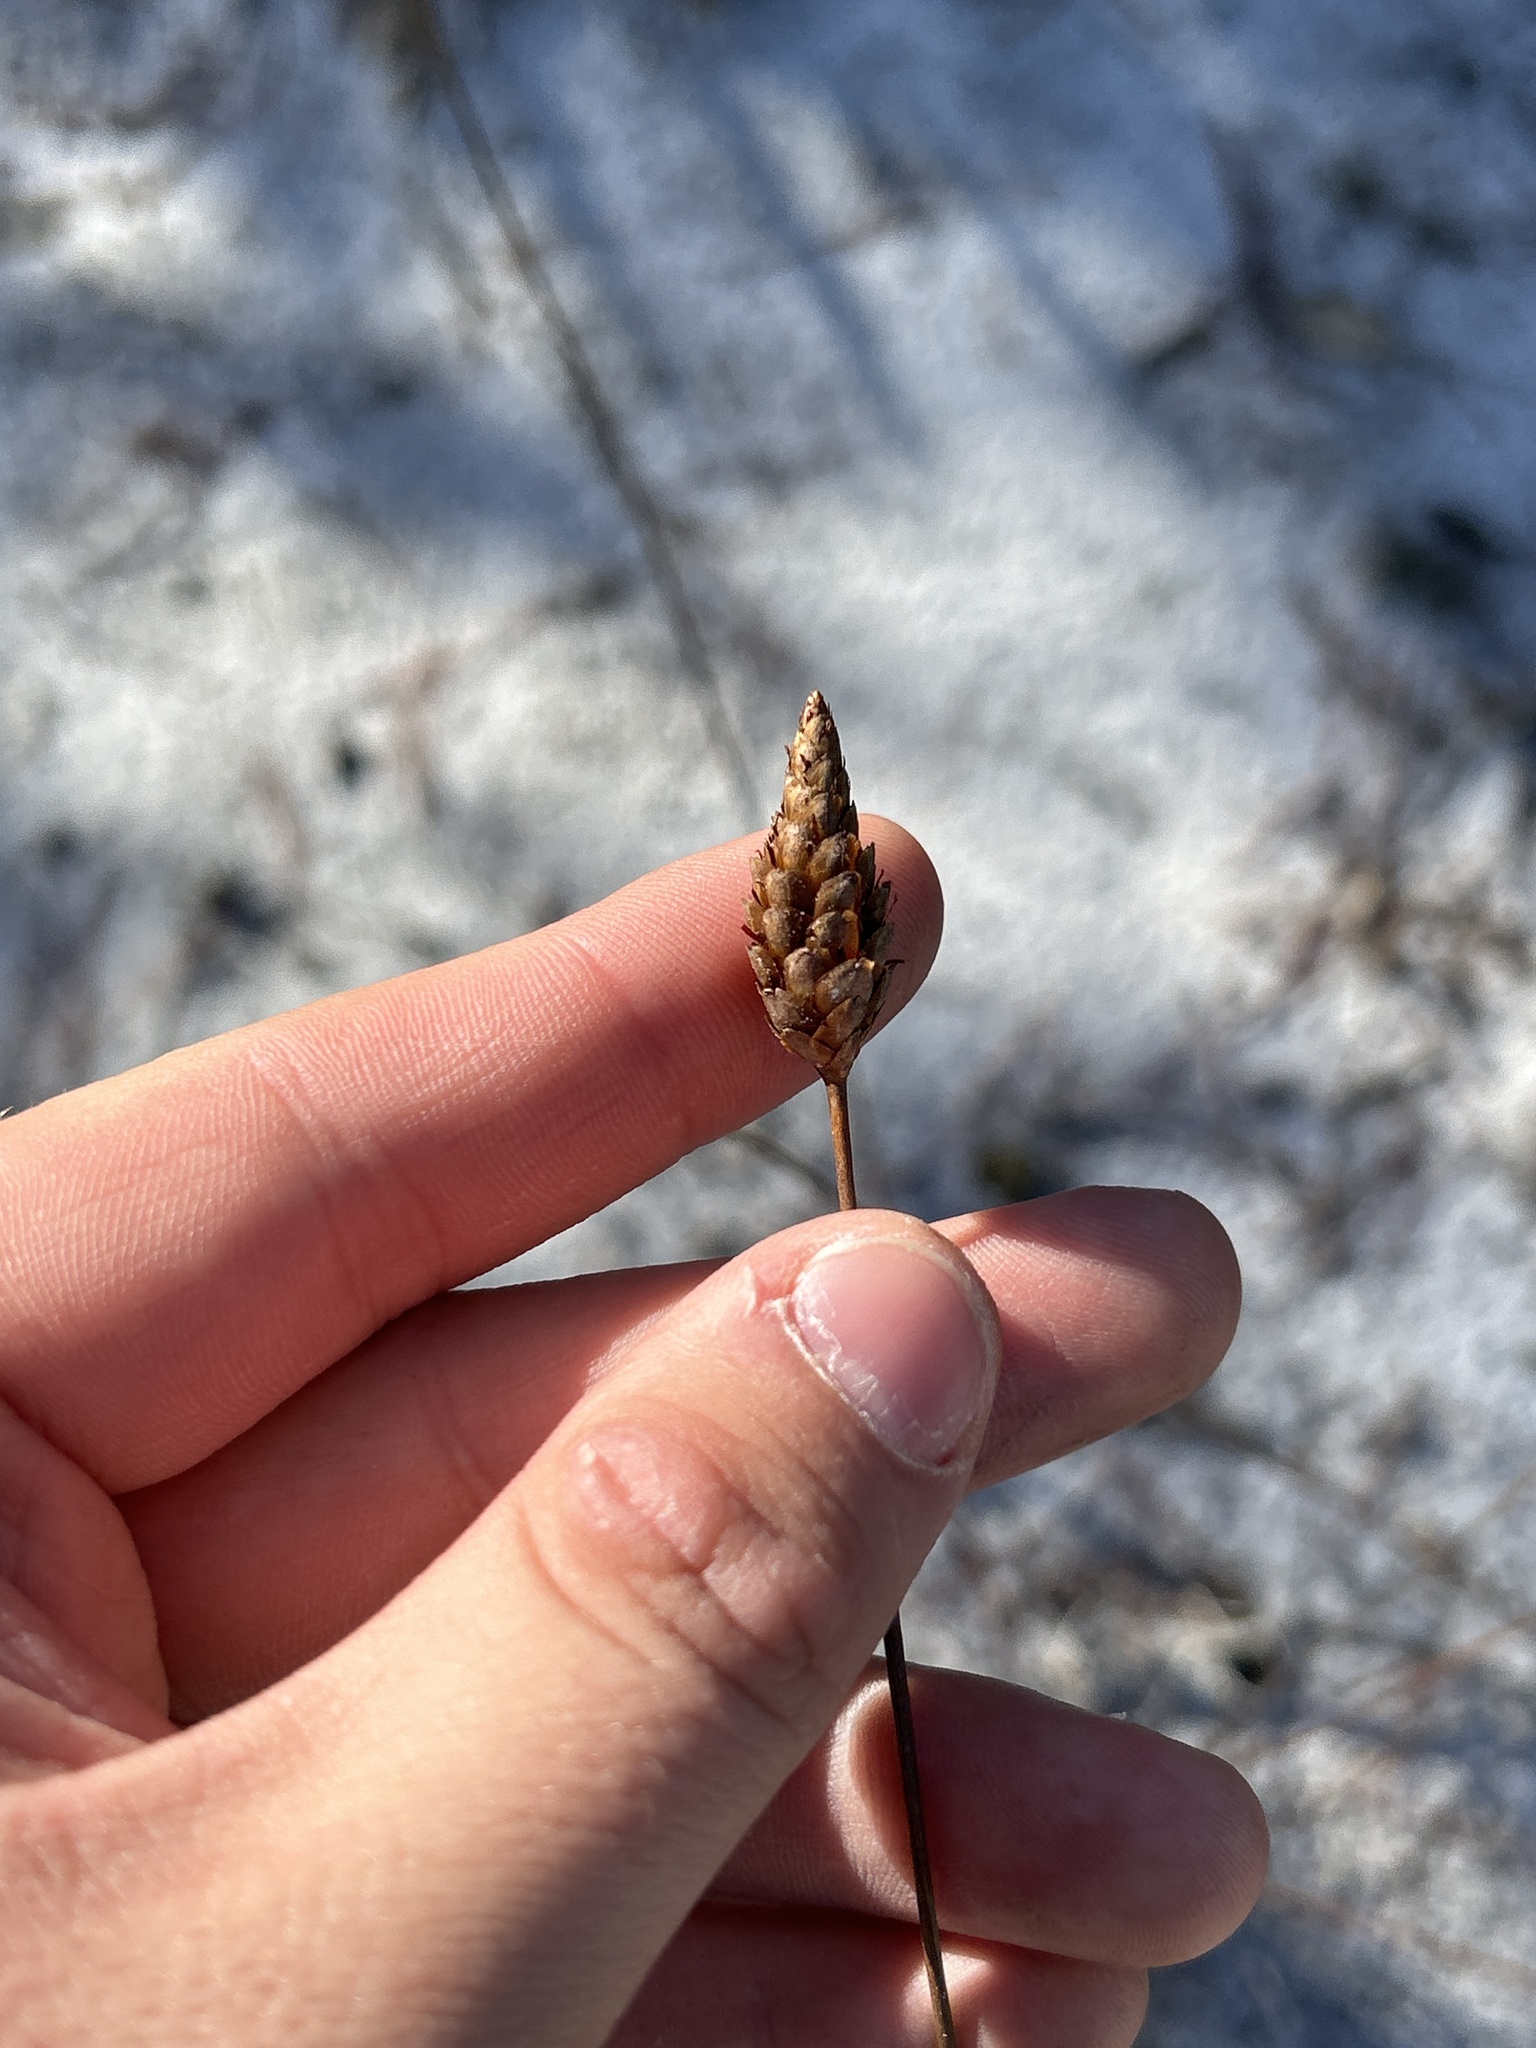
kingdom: Plantae
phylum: Tracheophyta
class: Liliopsida
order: Poales
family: Xyridaceae
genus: Xyris
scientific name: Xyris caroliniana
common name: Carolina yellow-eyed-grass
